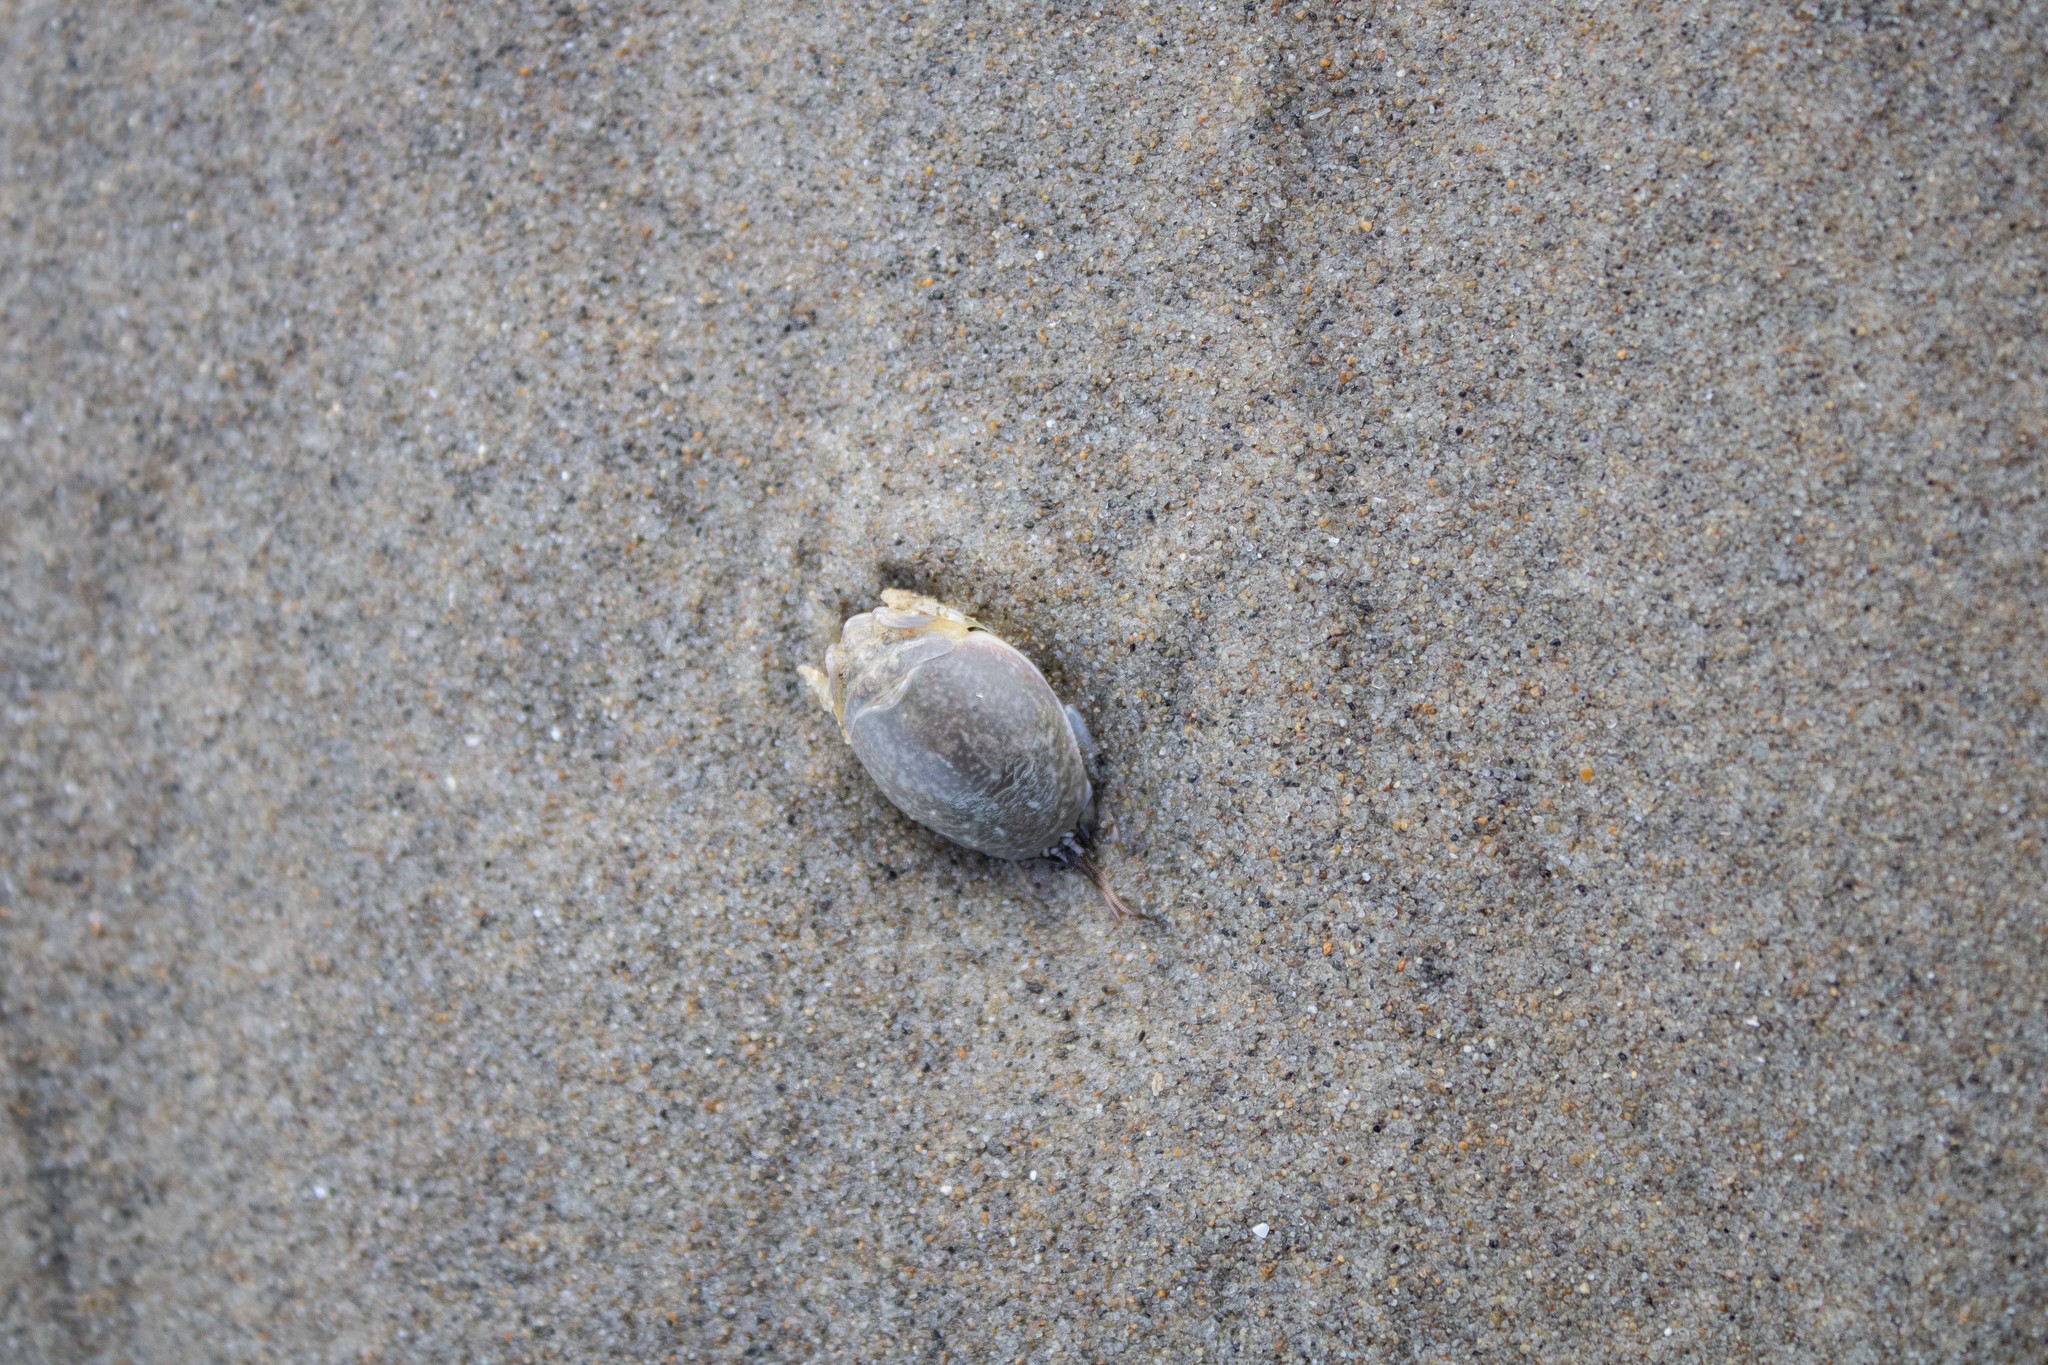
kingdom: Animalia
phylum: Arthropoda
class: Malacostraca
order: Decapoda
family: Hippidae
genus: Emerita
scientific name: Emerita analoga
